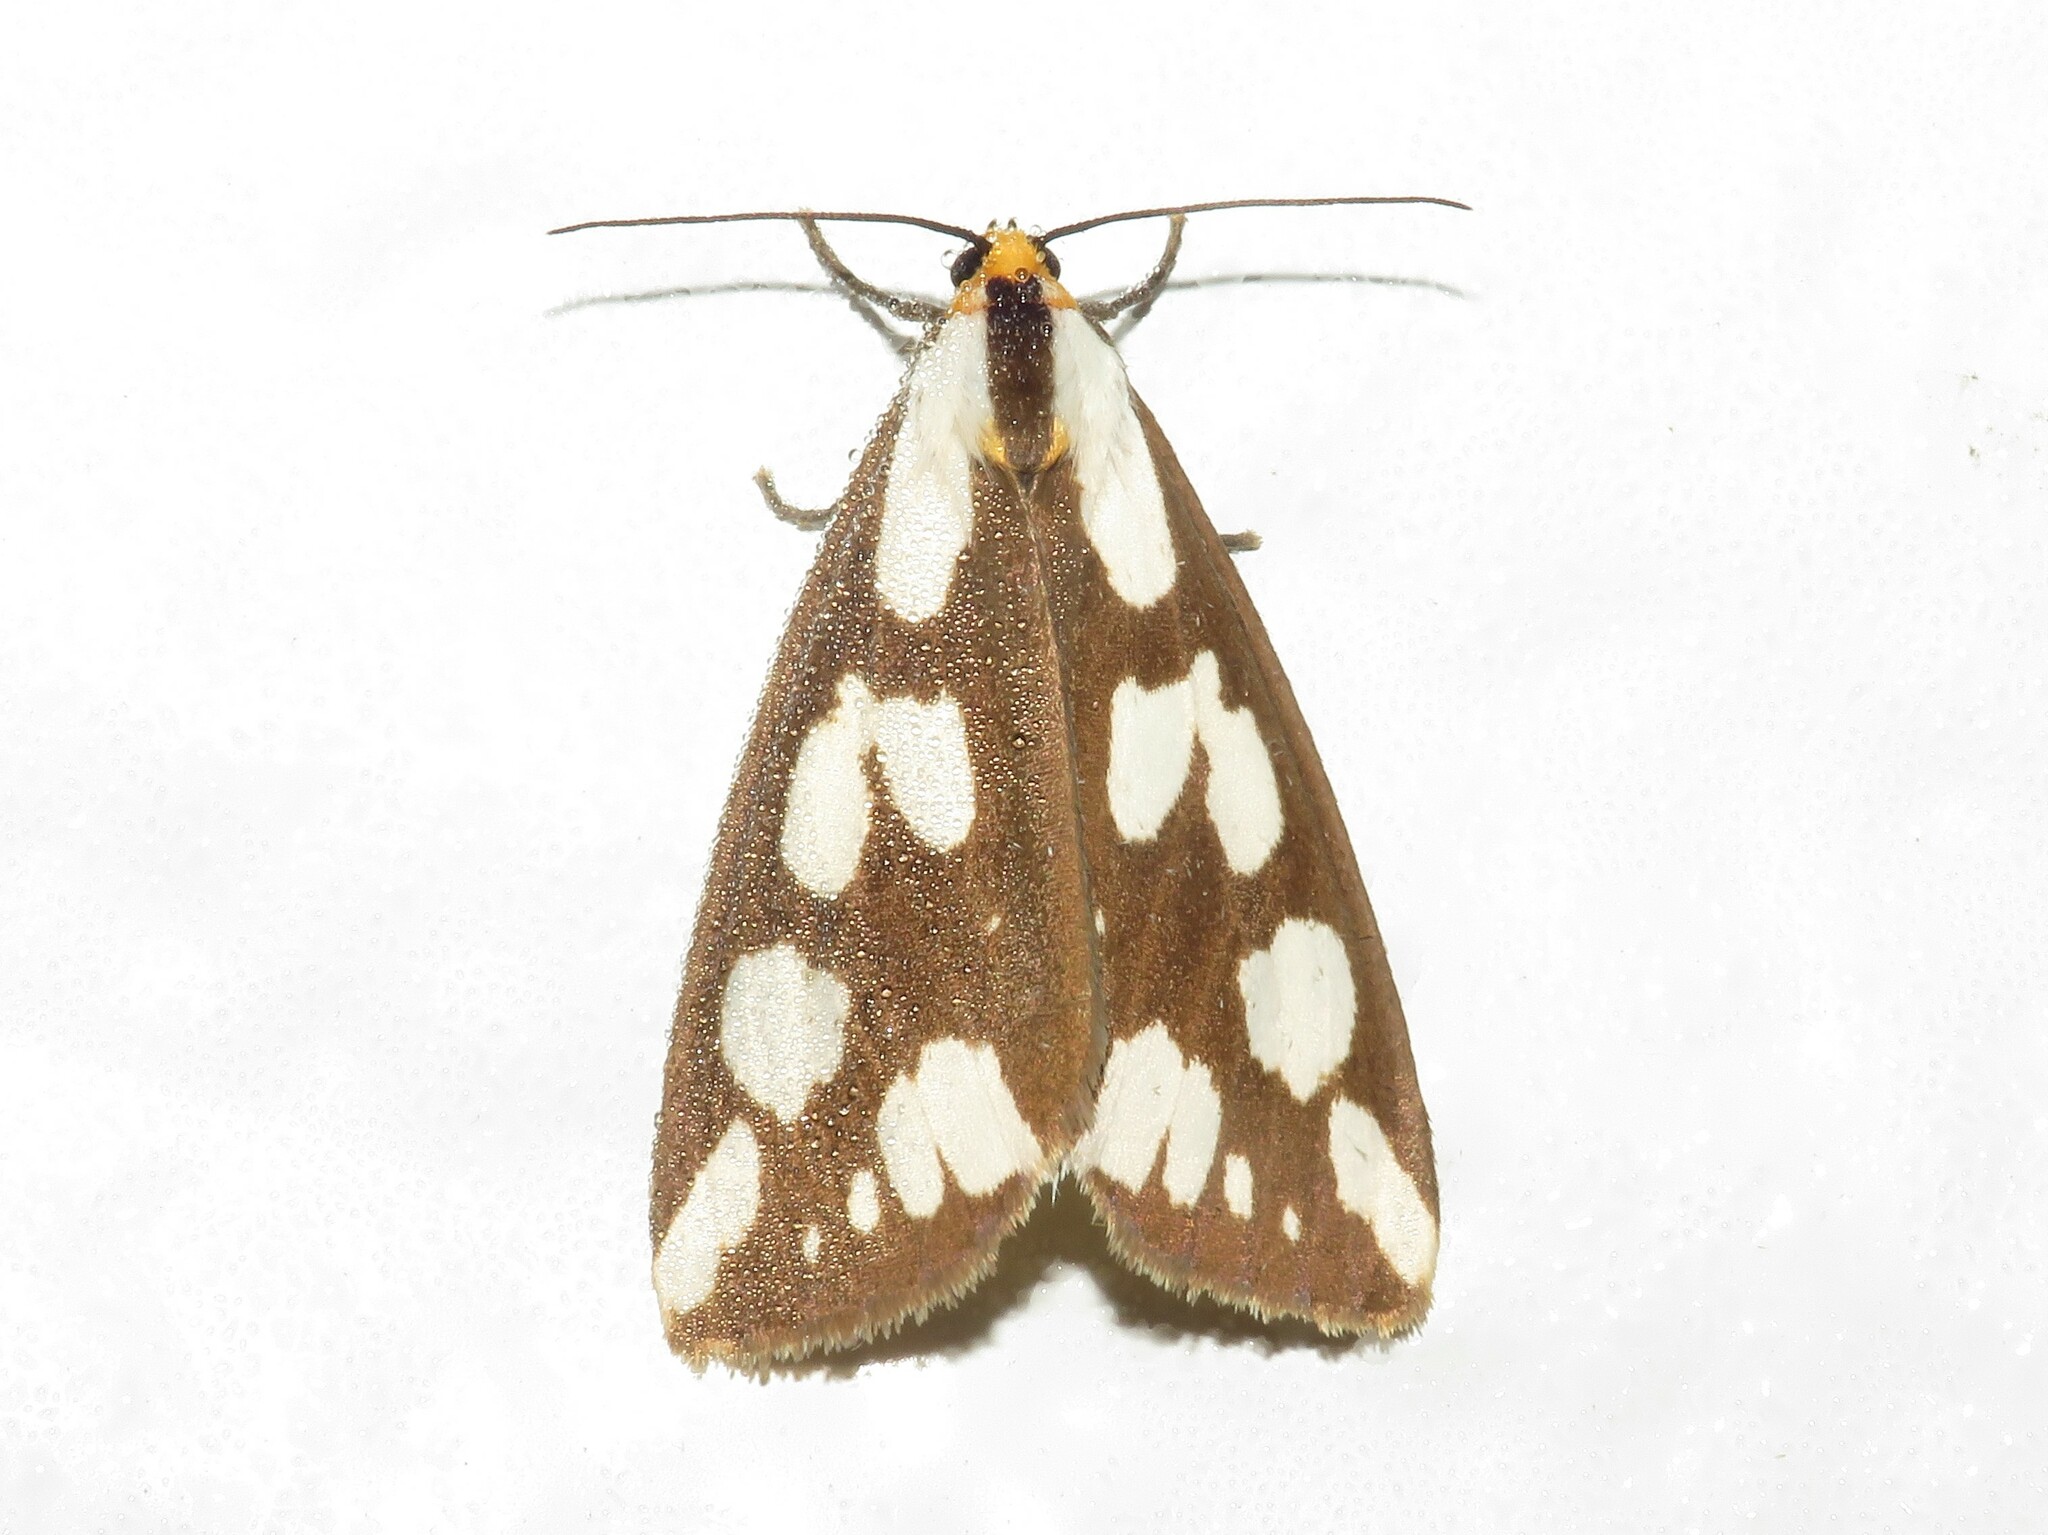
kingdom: Animalia
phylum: Arthropoda
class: Insecta
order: Lepidoptera
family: Erebidae
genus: Haploa
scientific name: Haploa confusa
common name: Confused haploa moth
